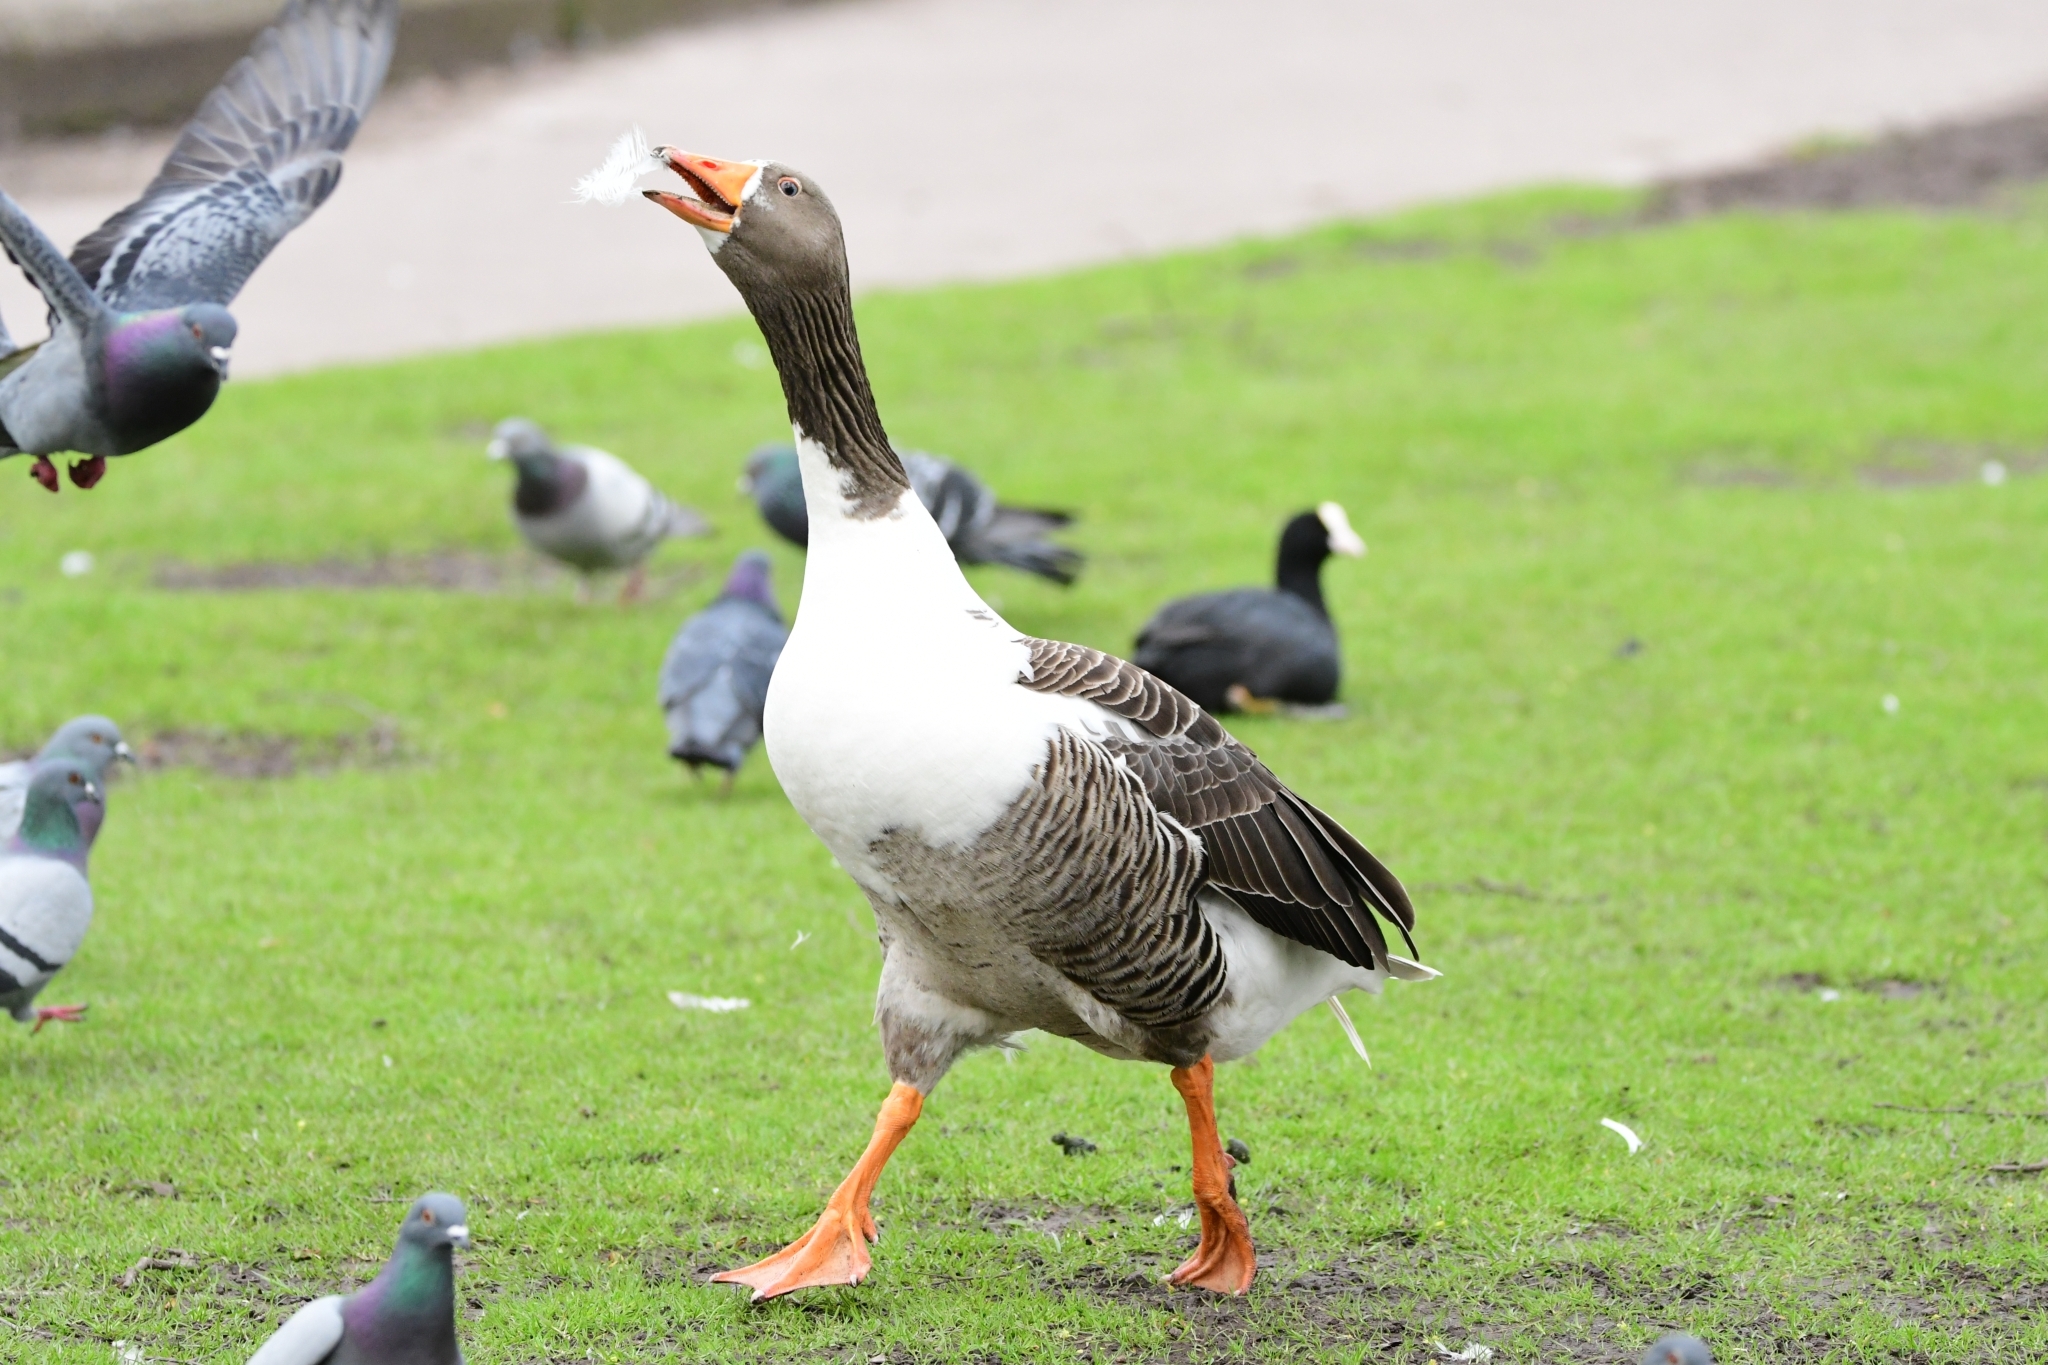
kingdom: Animalia
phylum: Chordata
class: Aves
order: Anseriformes
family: Anatidae
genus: Anser
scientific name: Anser anser
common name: Greylag goose
